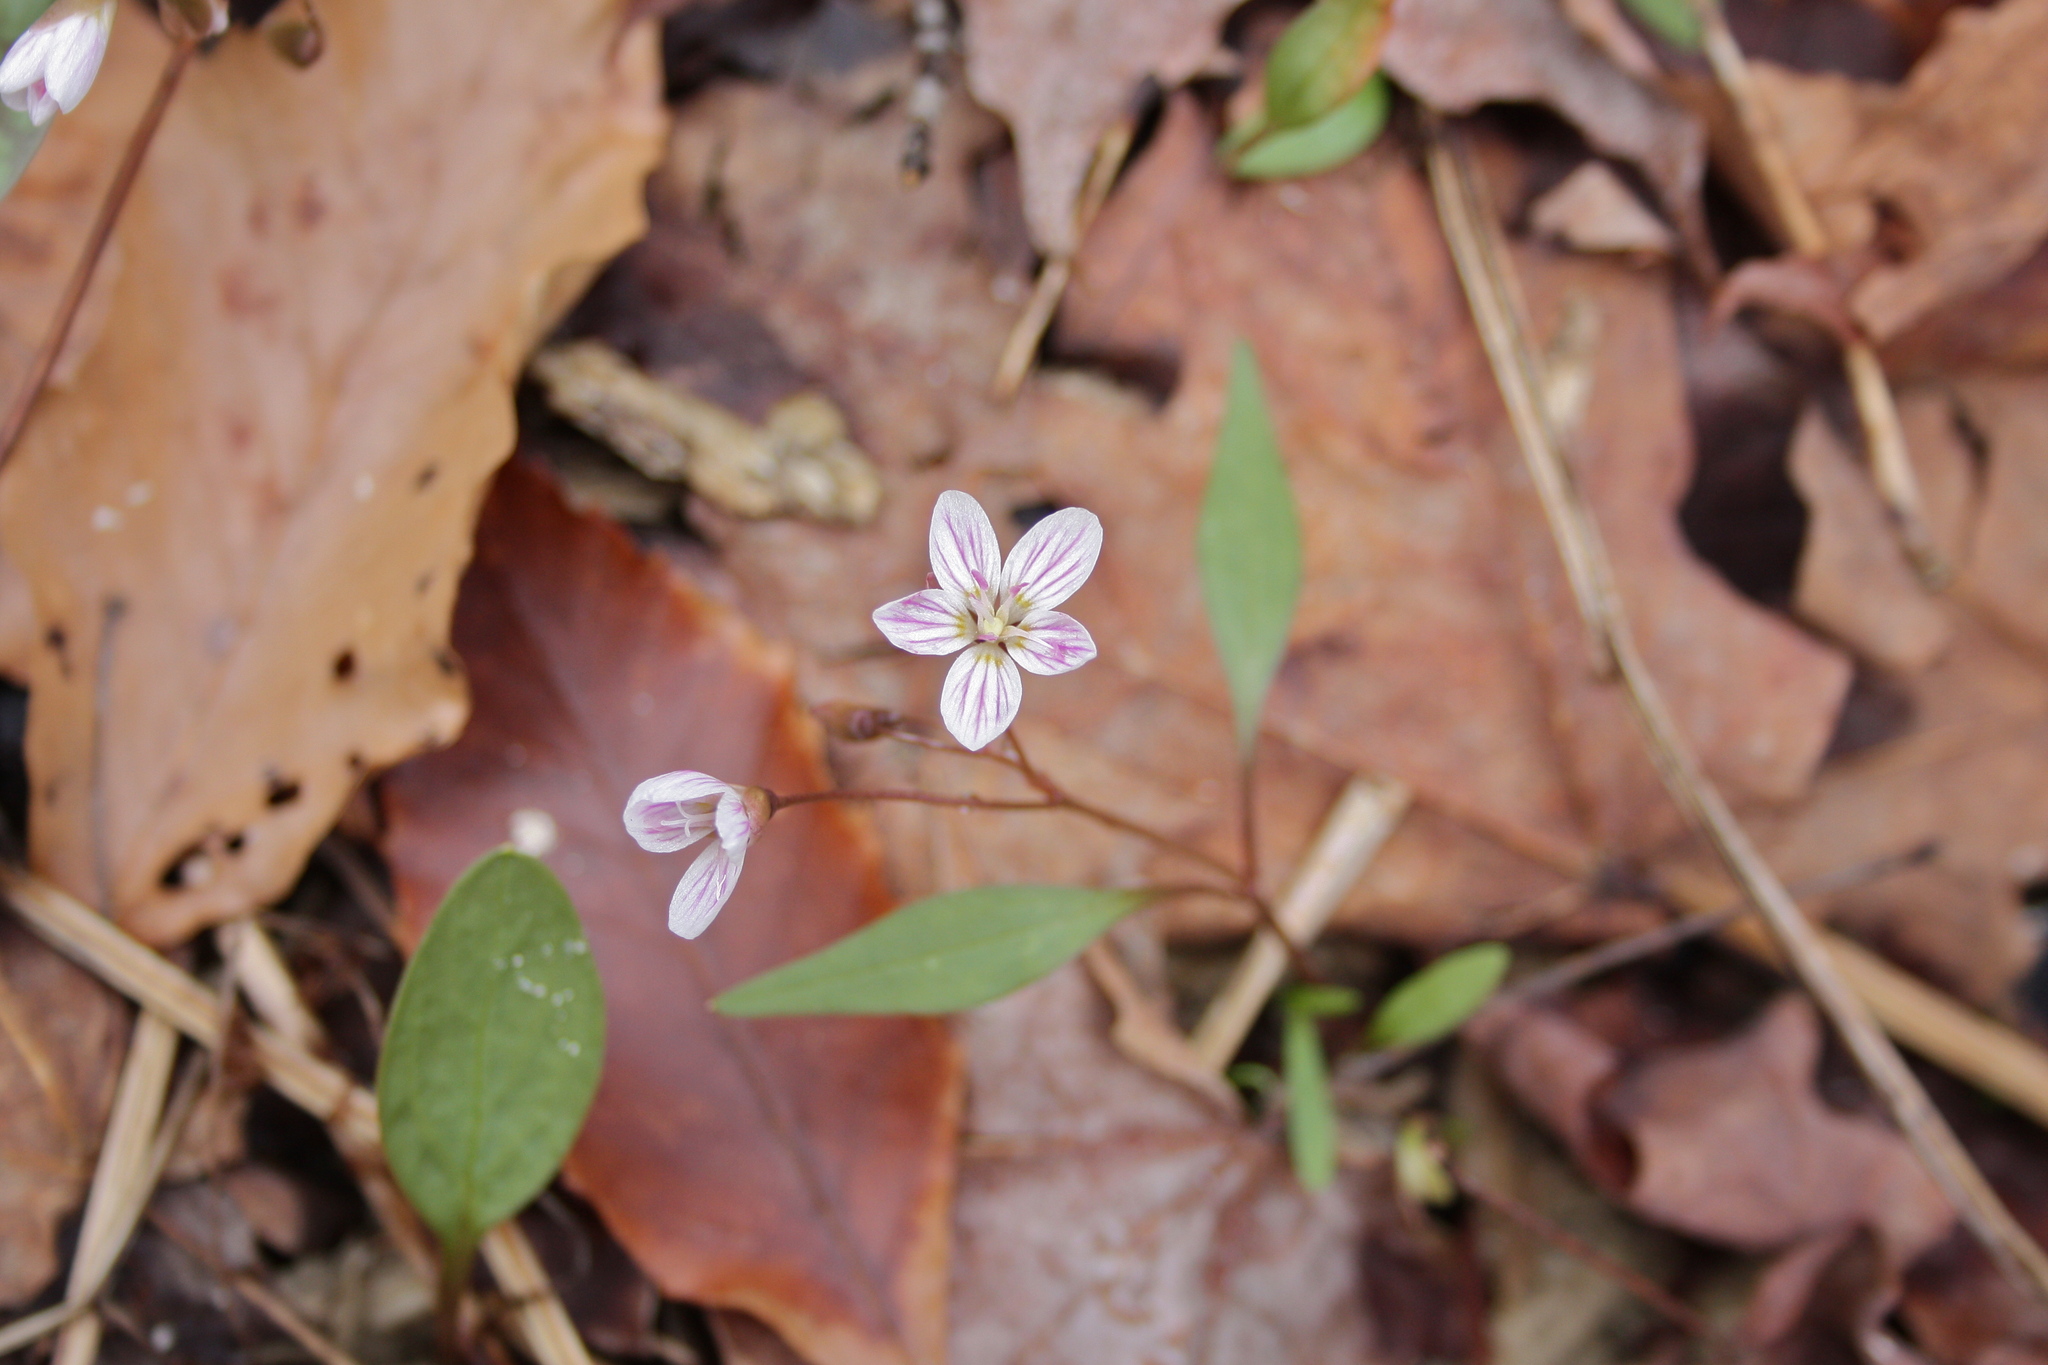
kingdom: Plantae
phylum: Tracheophyta
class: Magnoliopsida
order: Caryophyllales
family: Montiaceae
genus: Claytonia
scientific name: Claytonia caroliniana
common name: Carolina spring beauty
